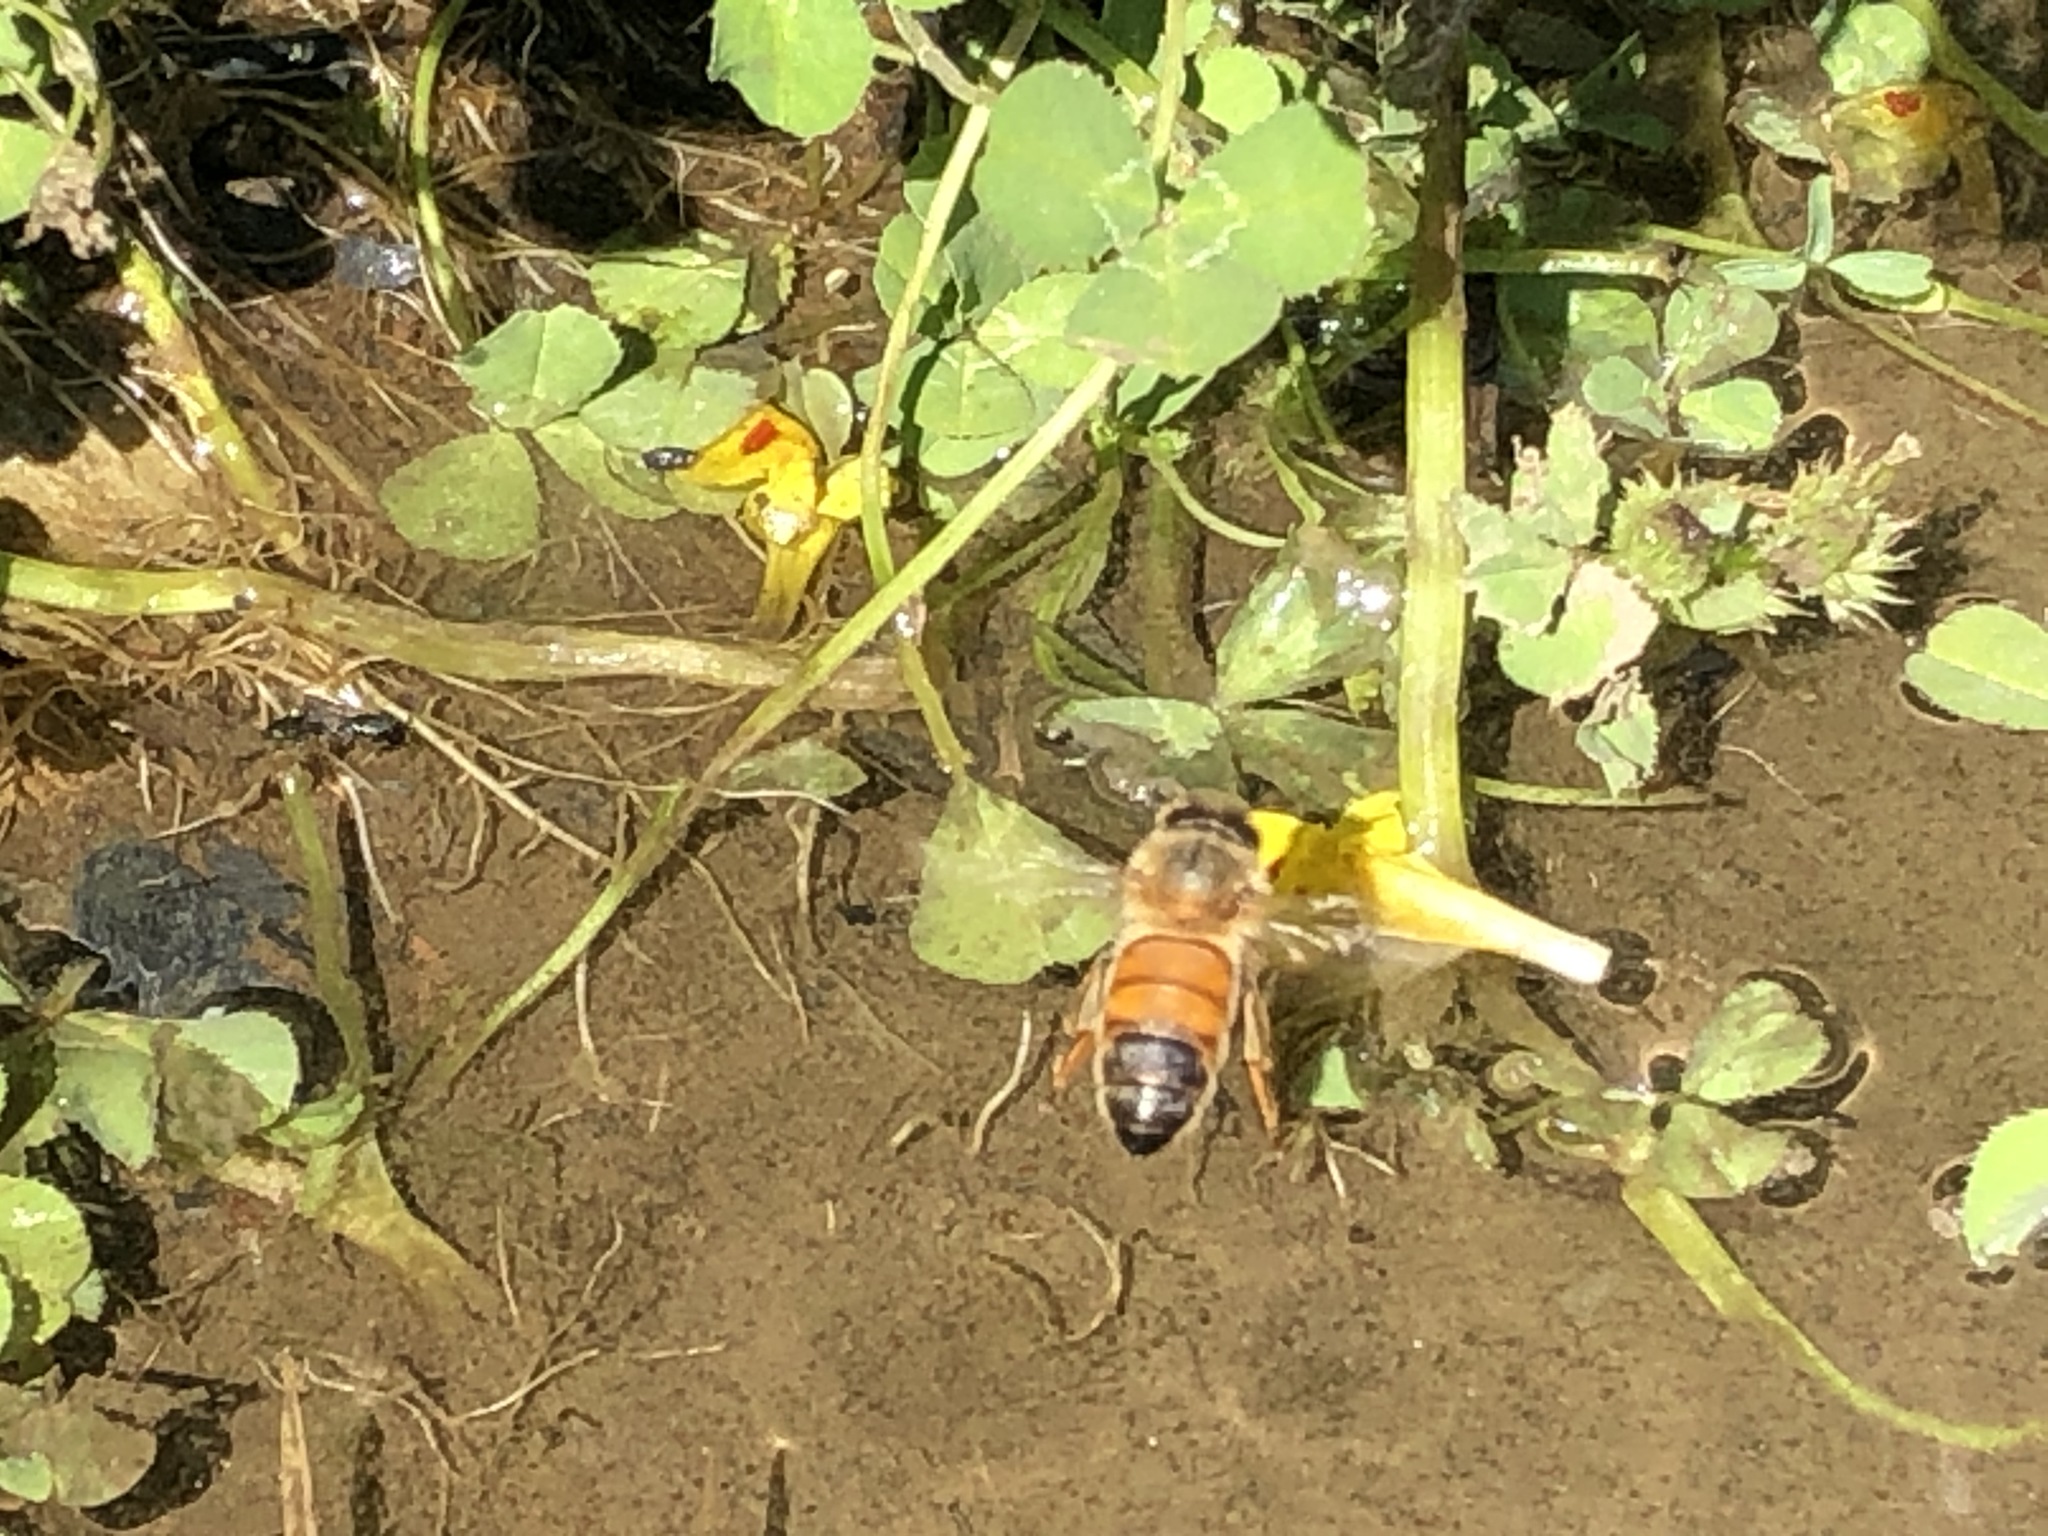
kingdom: Animalia
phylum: Arthropoda
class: Insecta
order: Hymenoptera
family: Apidae
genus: Apis
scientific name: Apis mellifera
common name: Honey bee
